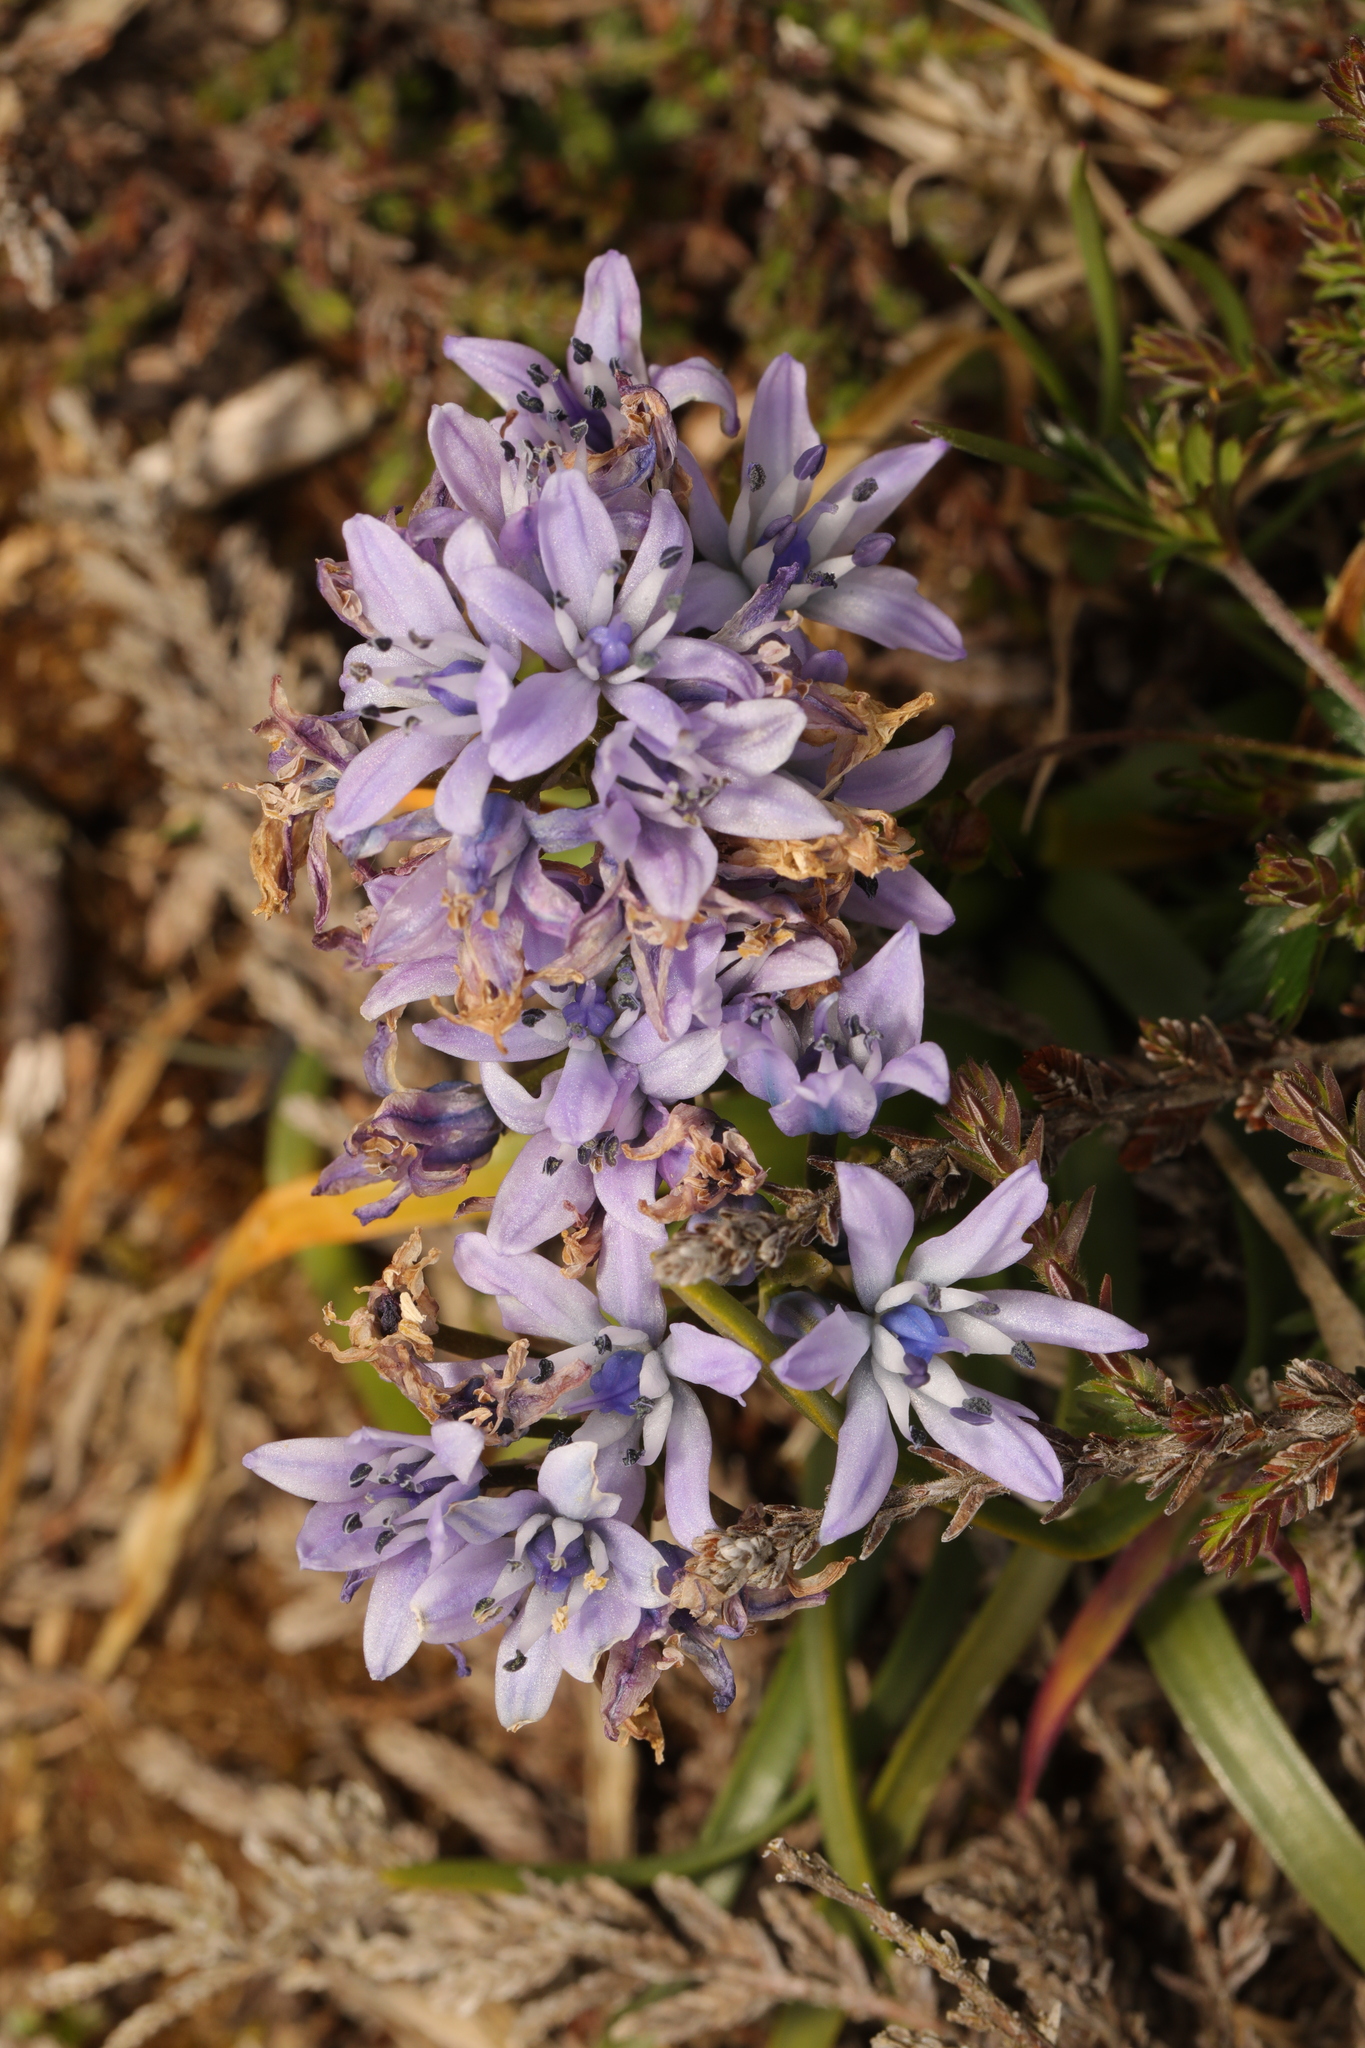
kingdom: Plantae
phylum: Tracheophyta
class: Liliopsida
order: Asparagales
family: Asparagaceae
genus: Scilla
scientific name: Scilla verna
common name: Spring squill
